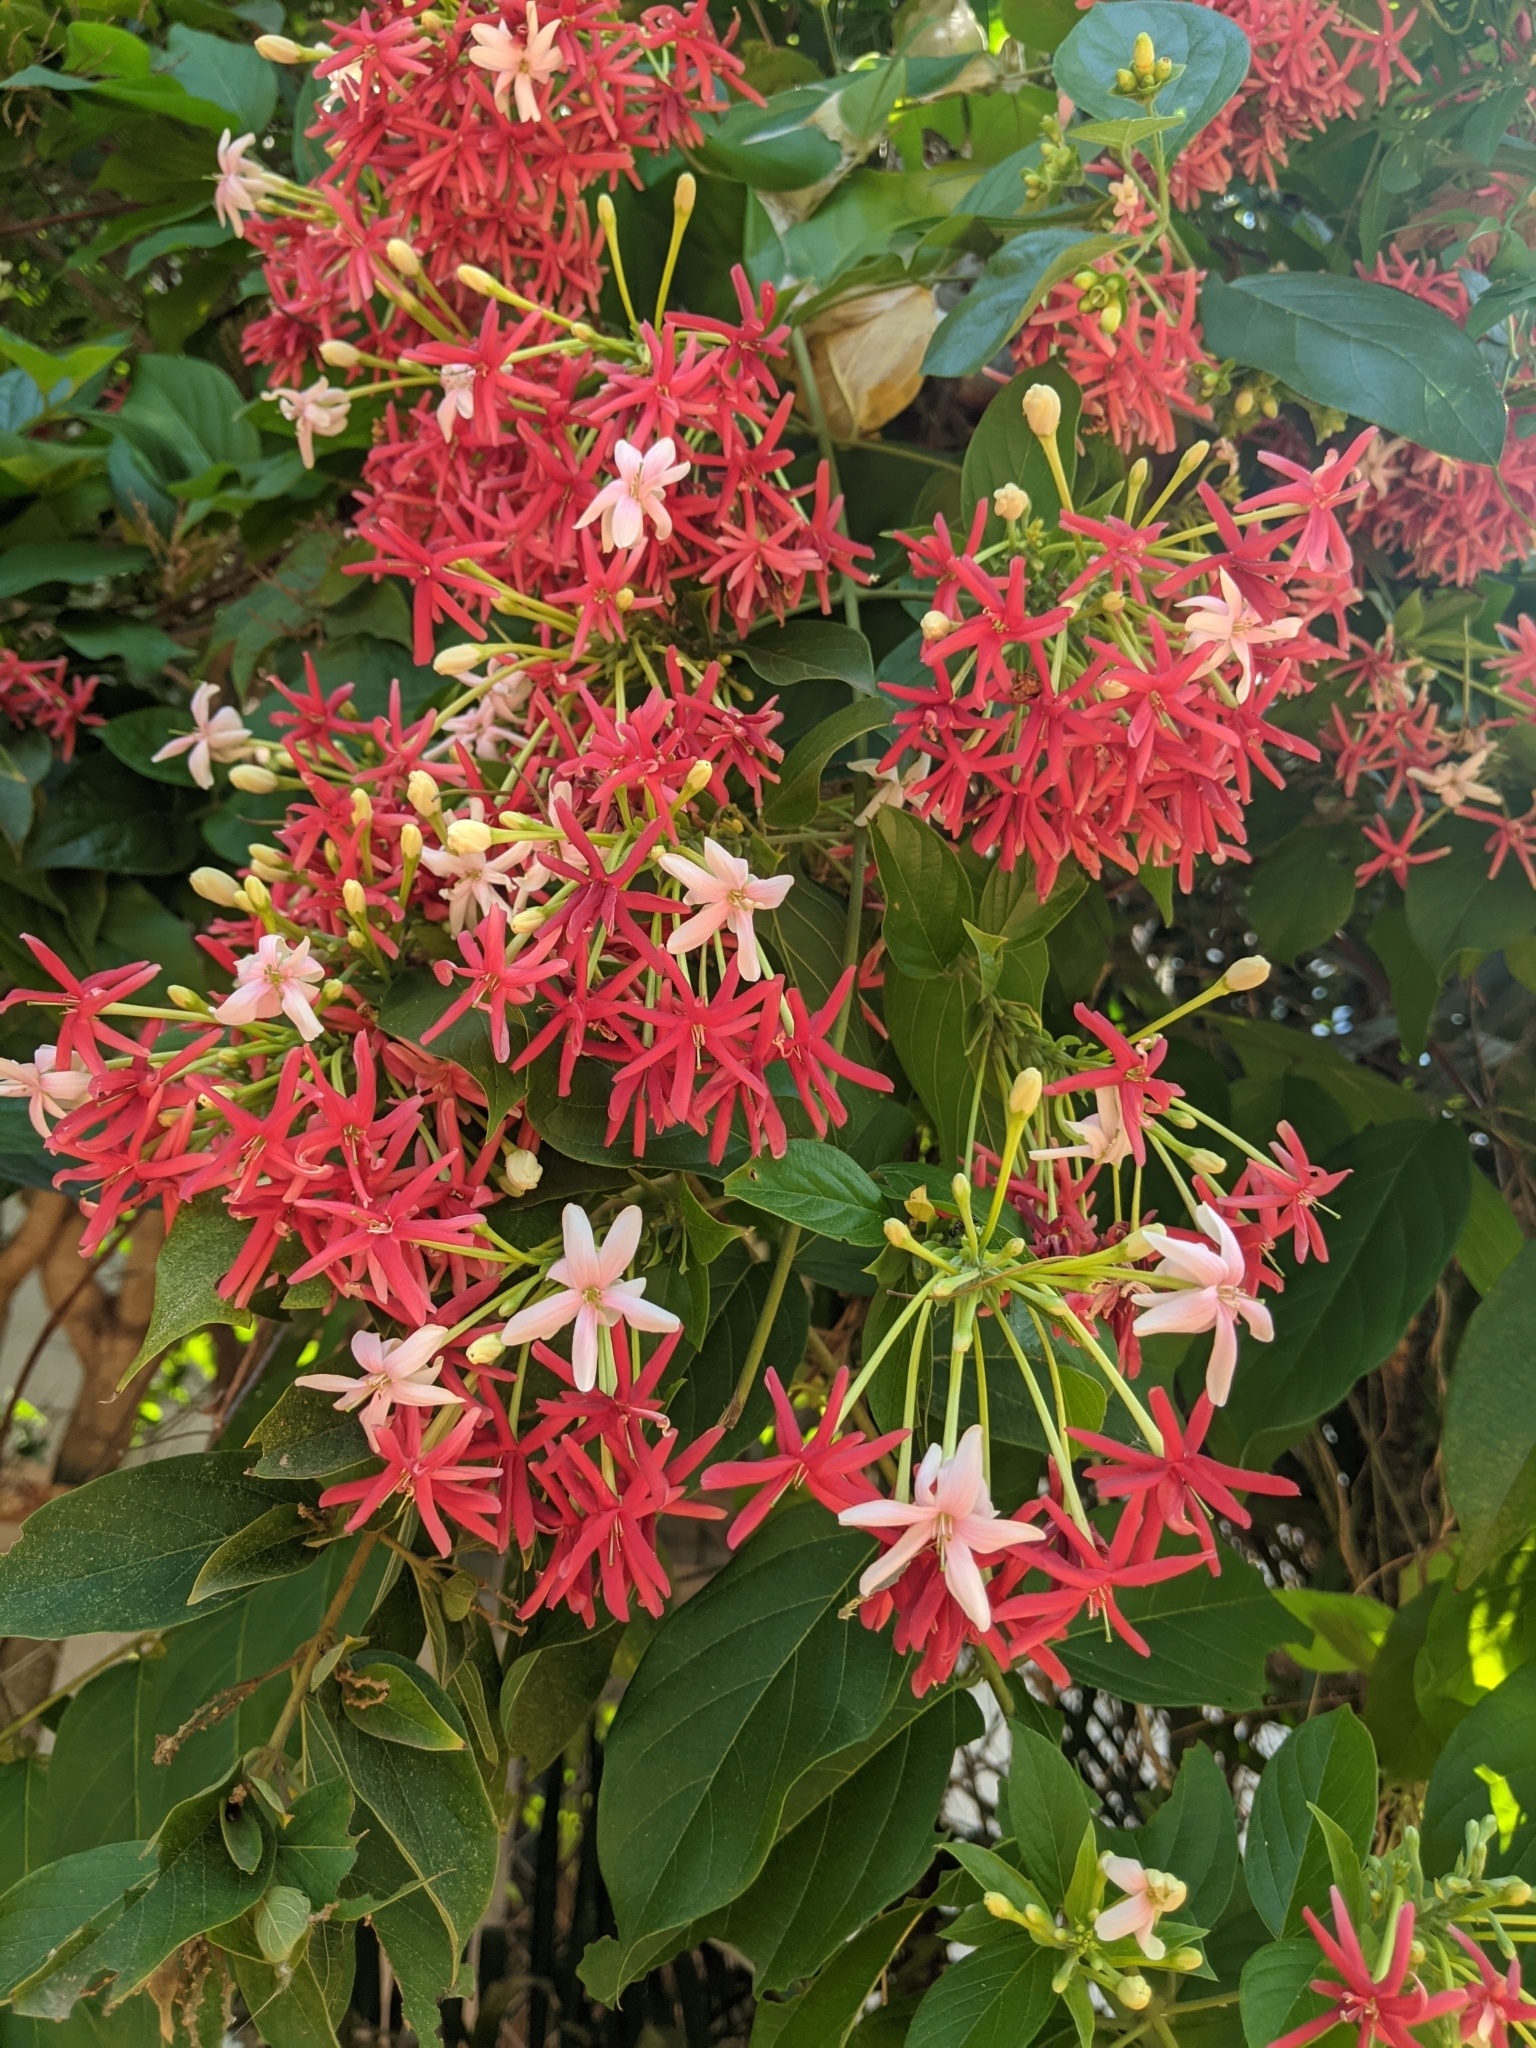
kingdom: Plantae
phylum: Tracheophyta
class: Magnoliopsida
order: Myrtales
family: Combretaceae
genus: Combretum
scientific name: Combretum indicum
